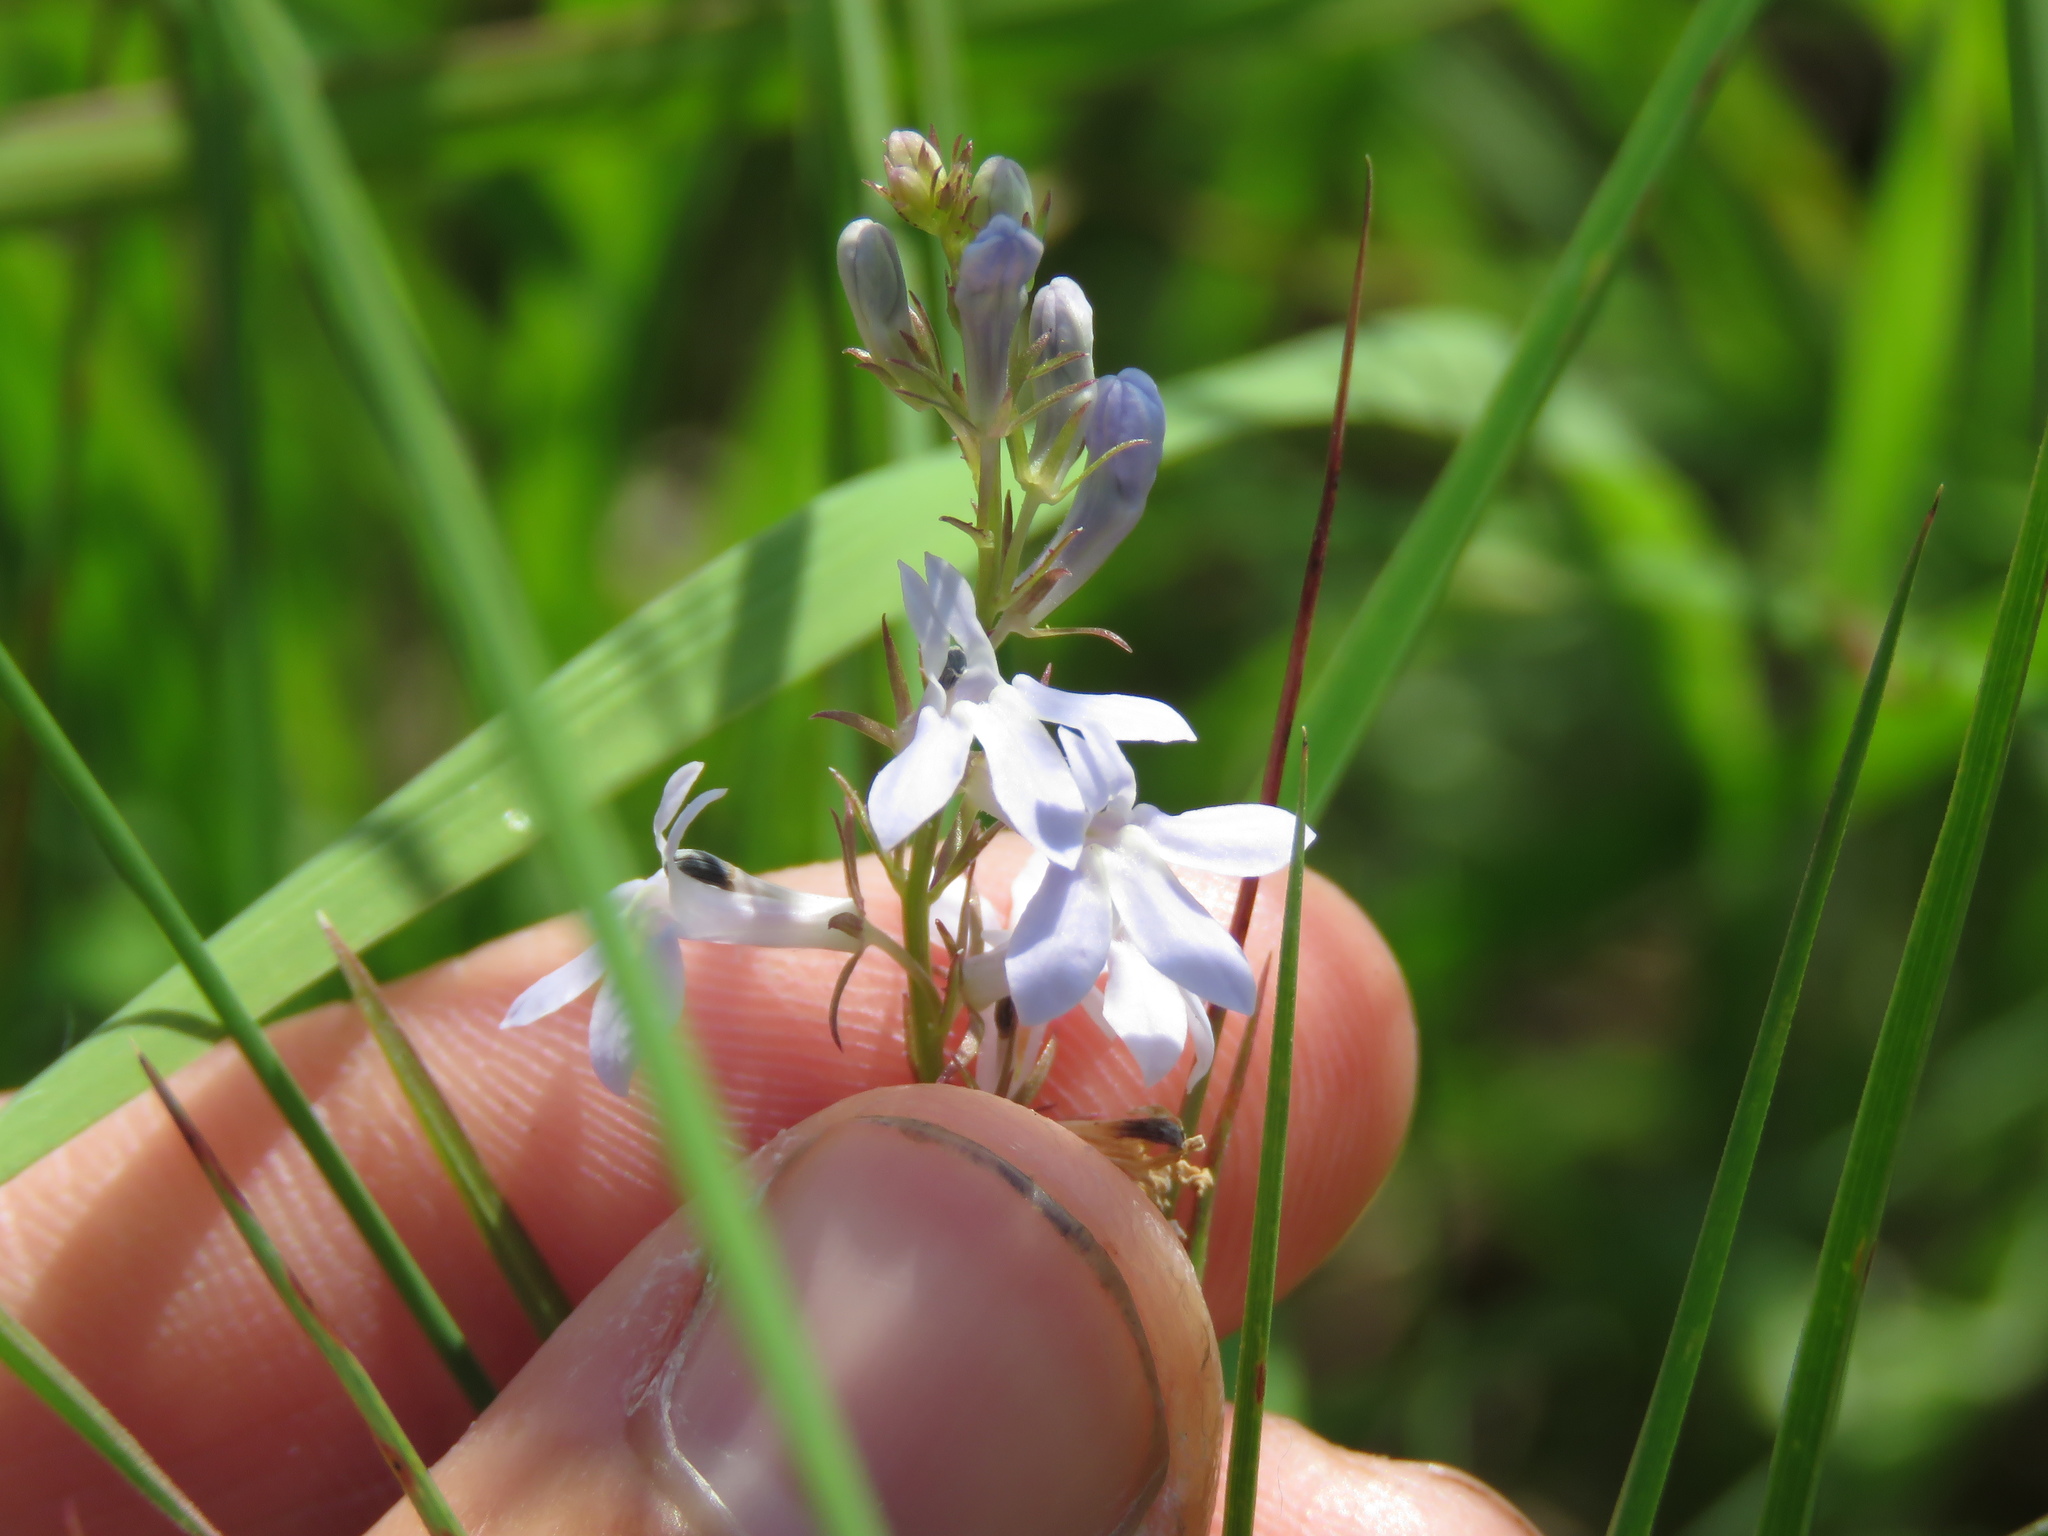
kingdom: Plantae
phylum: Tracheophyta
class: Magnoliopsida
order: Asterales
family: Campanulaceae
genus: Lobelia
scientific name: Lobelia spicata
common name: Pale-spike lobelia
